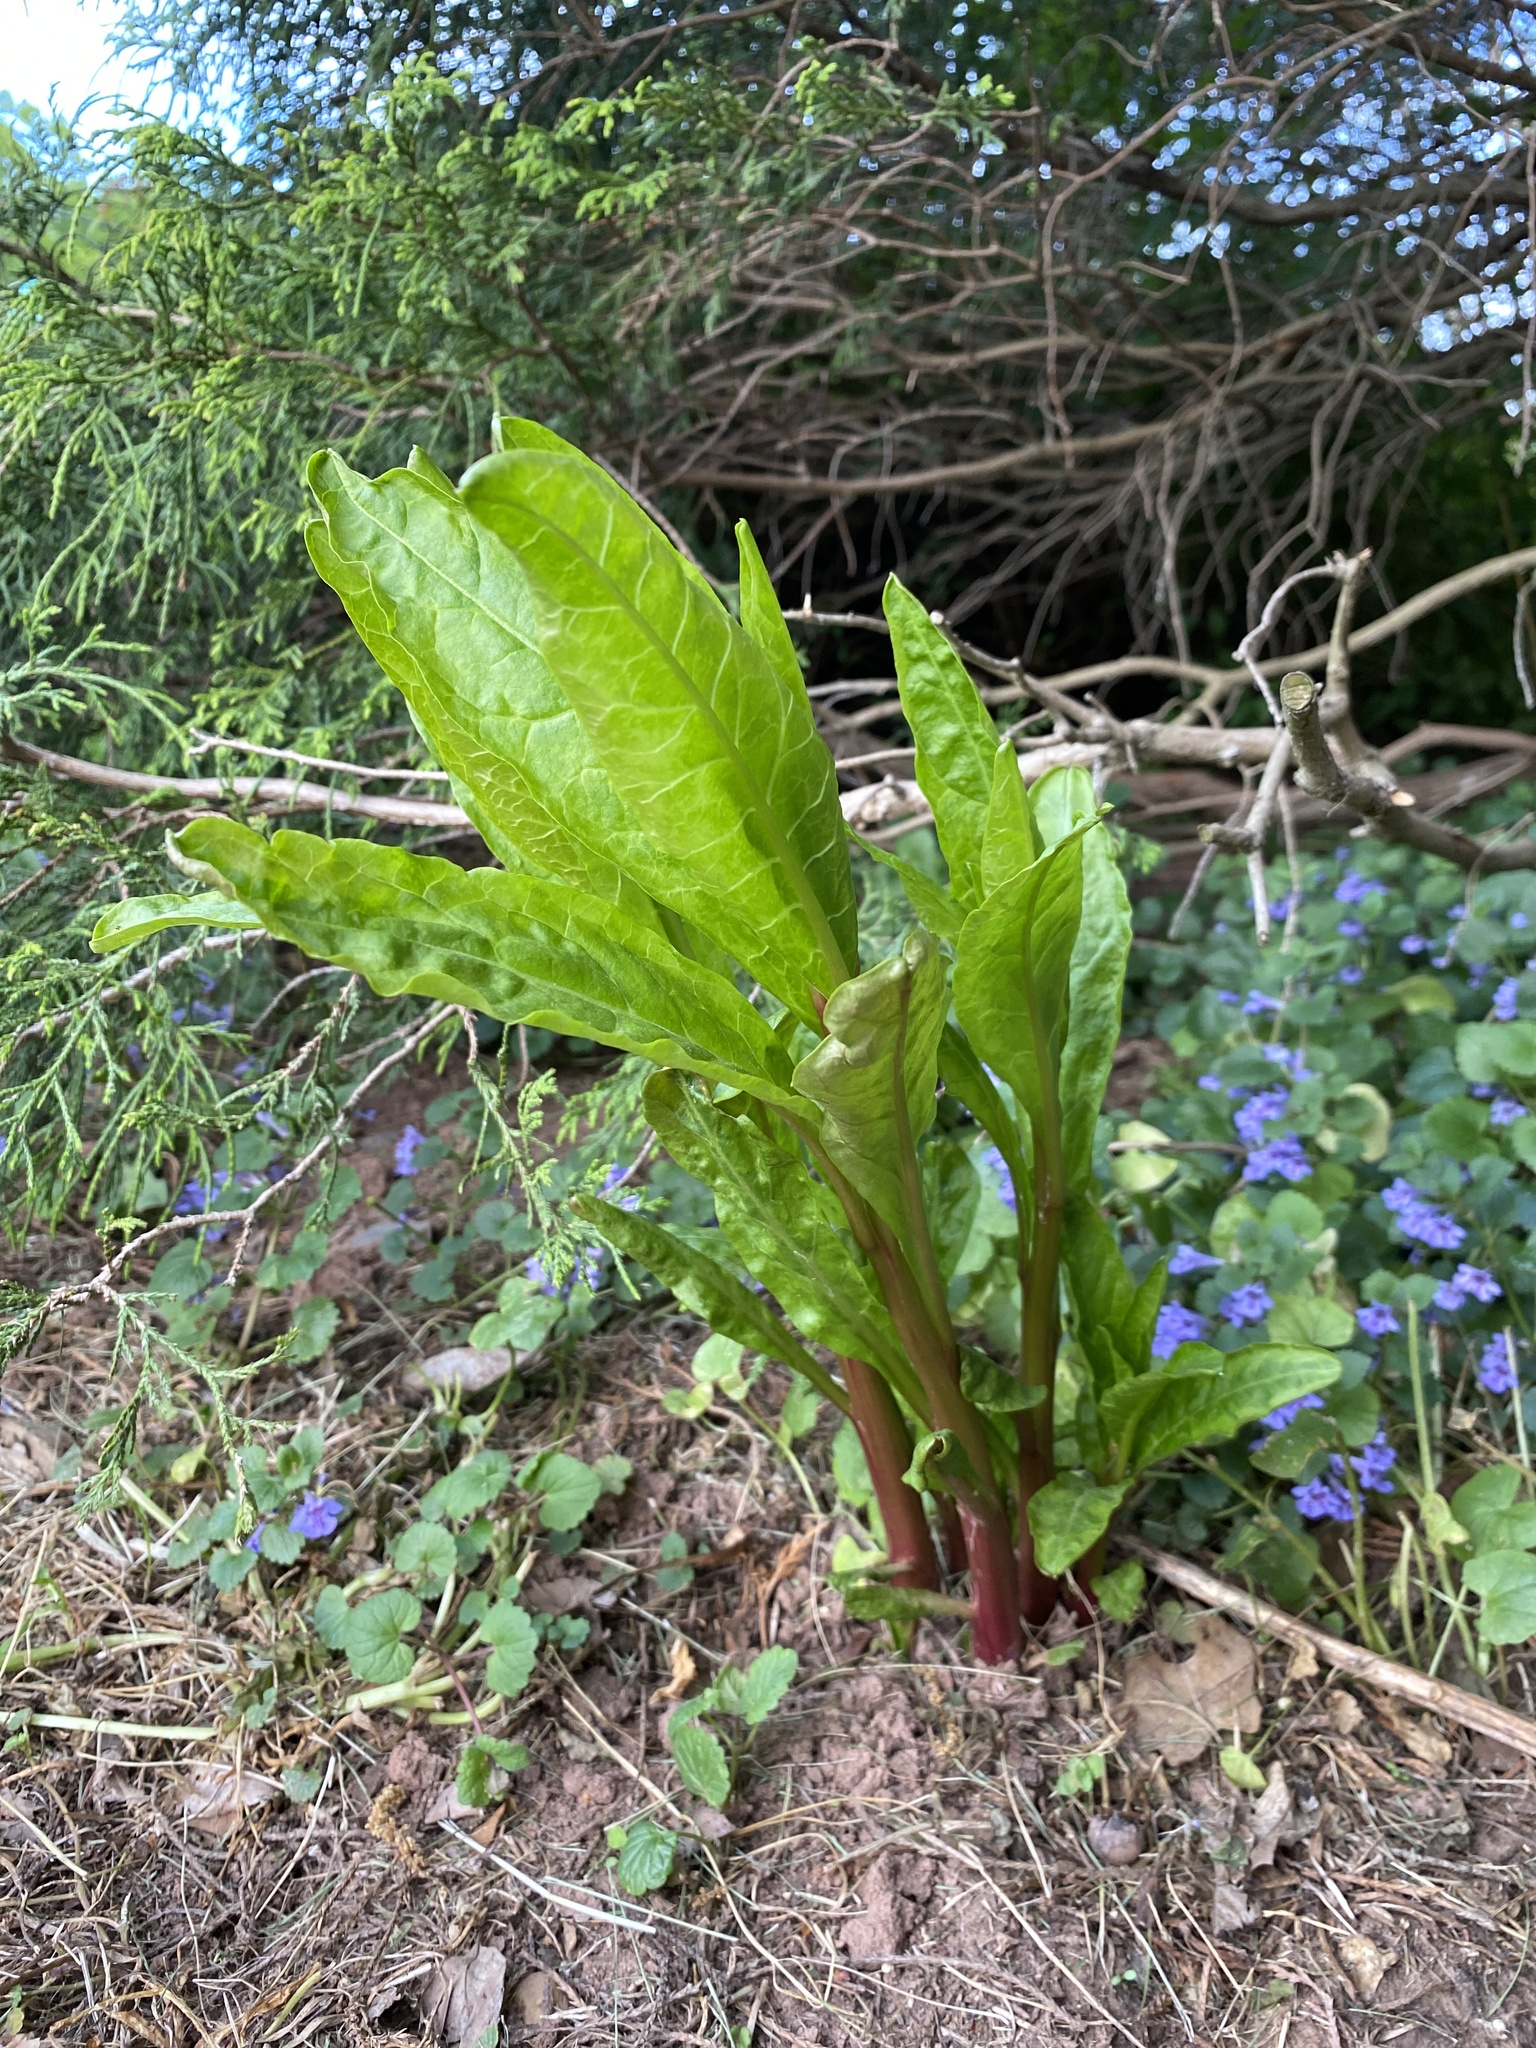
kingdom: Plantae
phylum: Tracheophyta
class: Magnoliopsida
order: Caryophyllales
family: Phytolaccaceae
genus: Phytolacca
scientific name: Phytolacca americana
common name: American pokeweed
